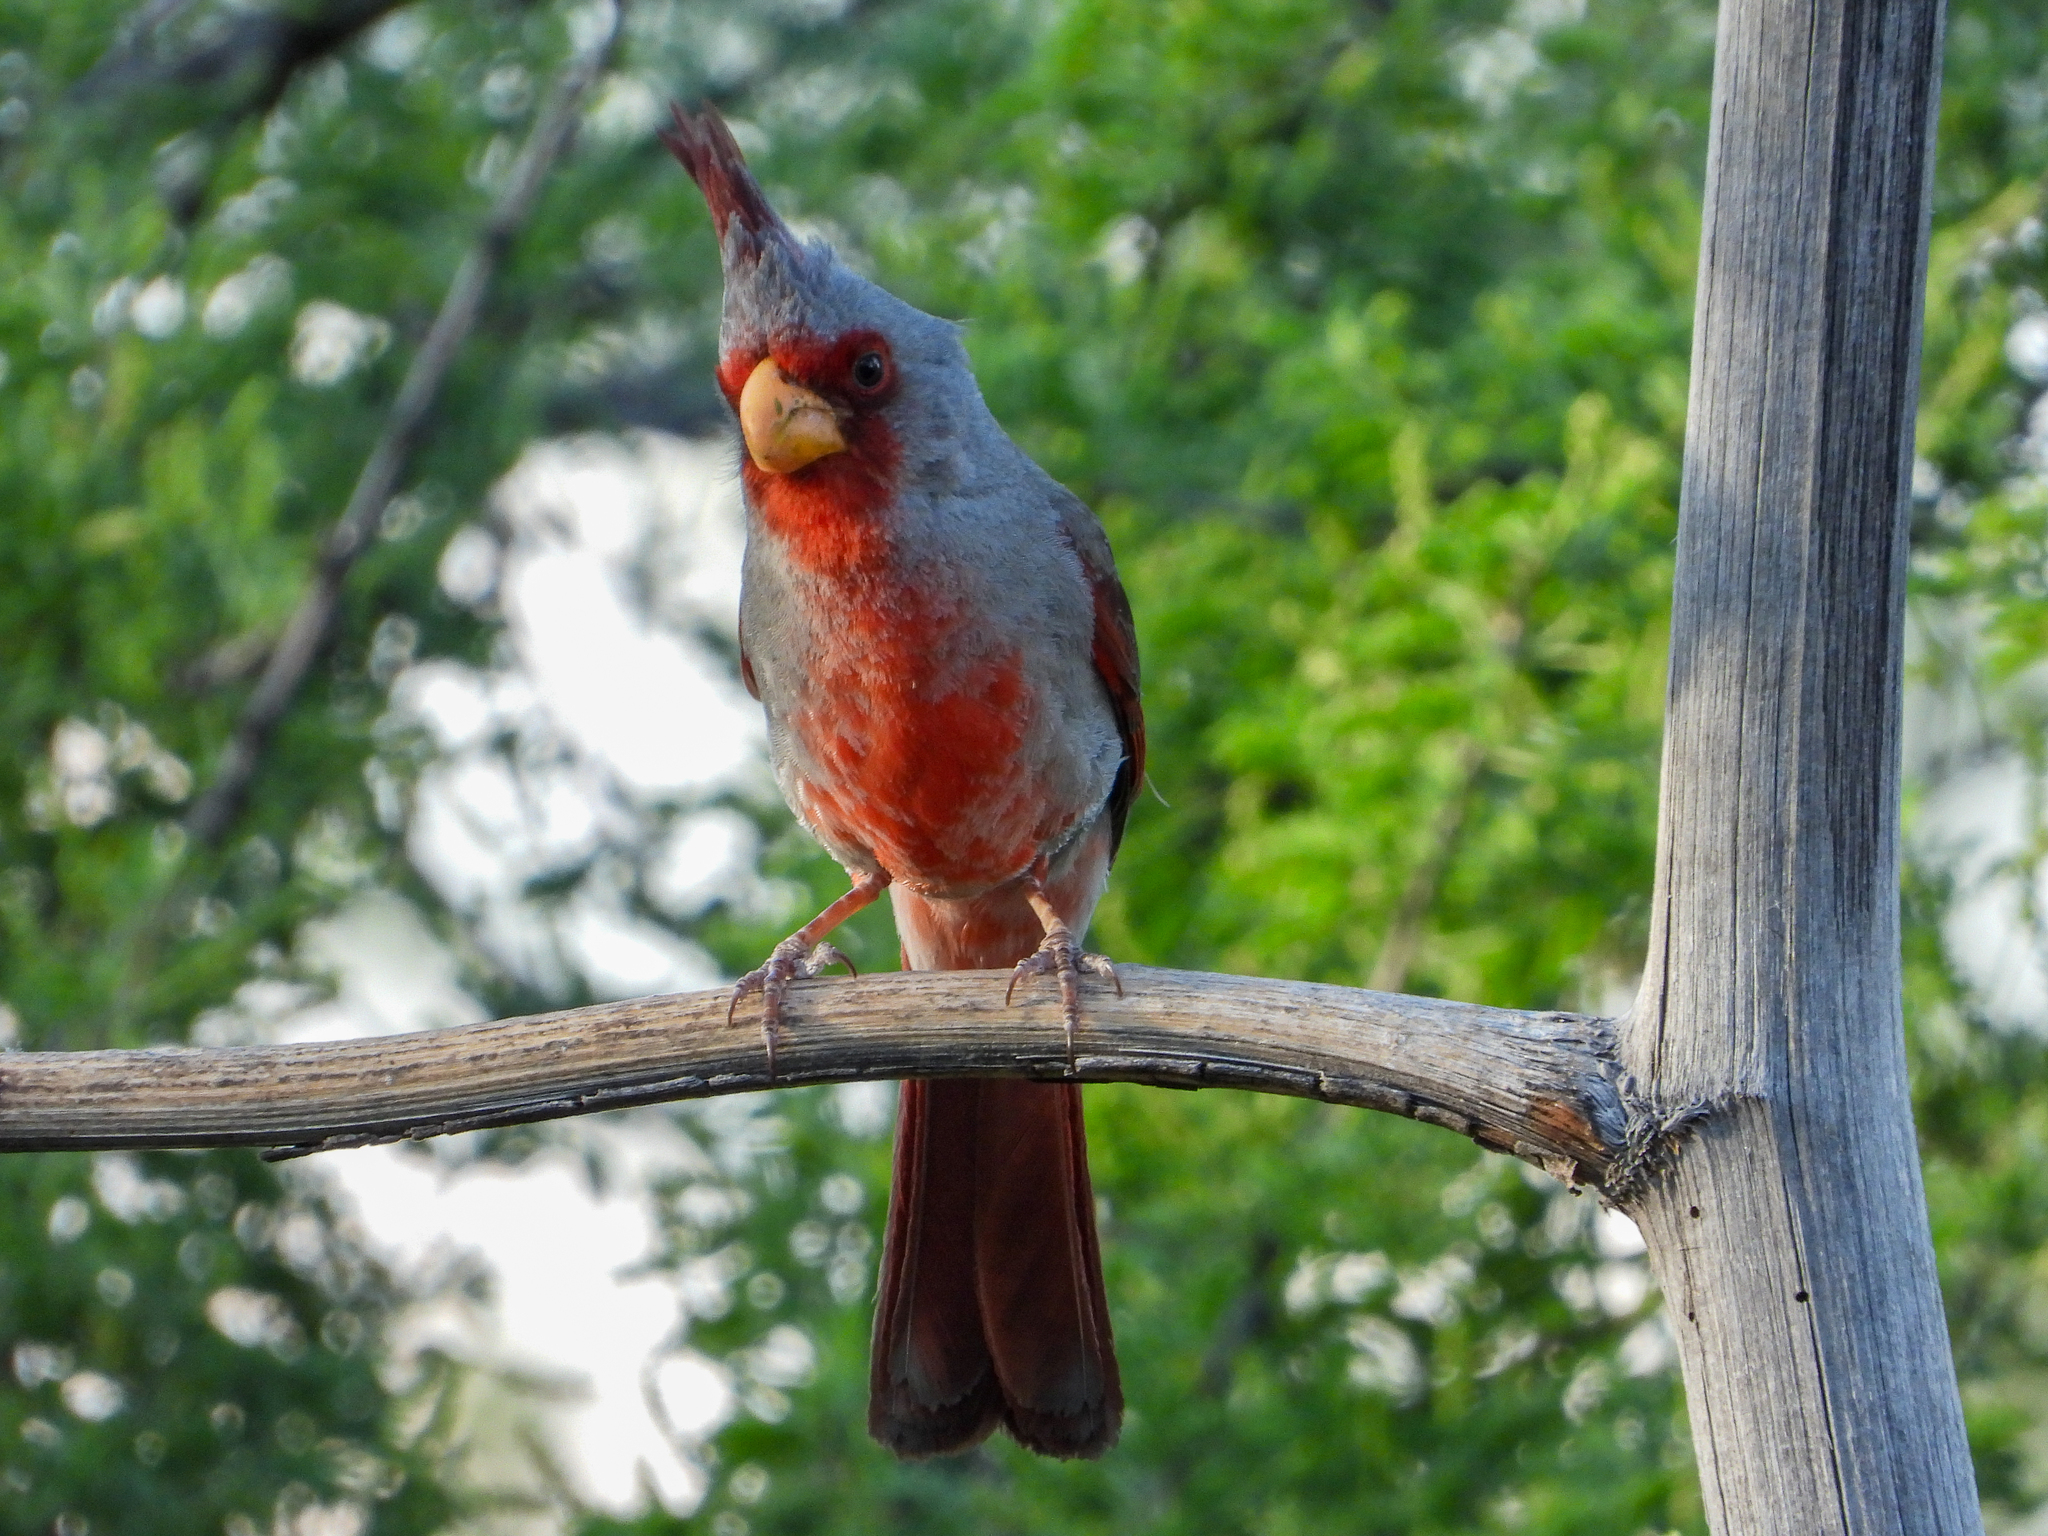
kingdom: Animalia
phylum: Chordata
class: Aves
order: Passeriformes
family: Cardinalidae
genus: Cardinalis
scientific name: Cardinalis sinuatus
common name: Pyrrhuloxia
